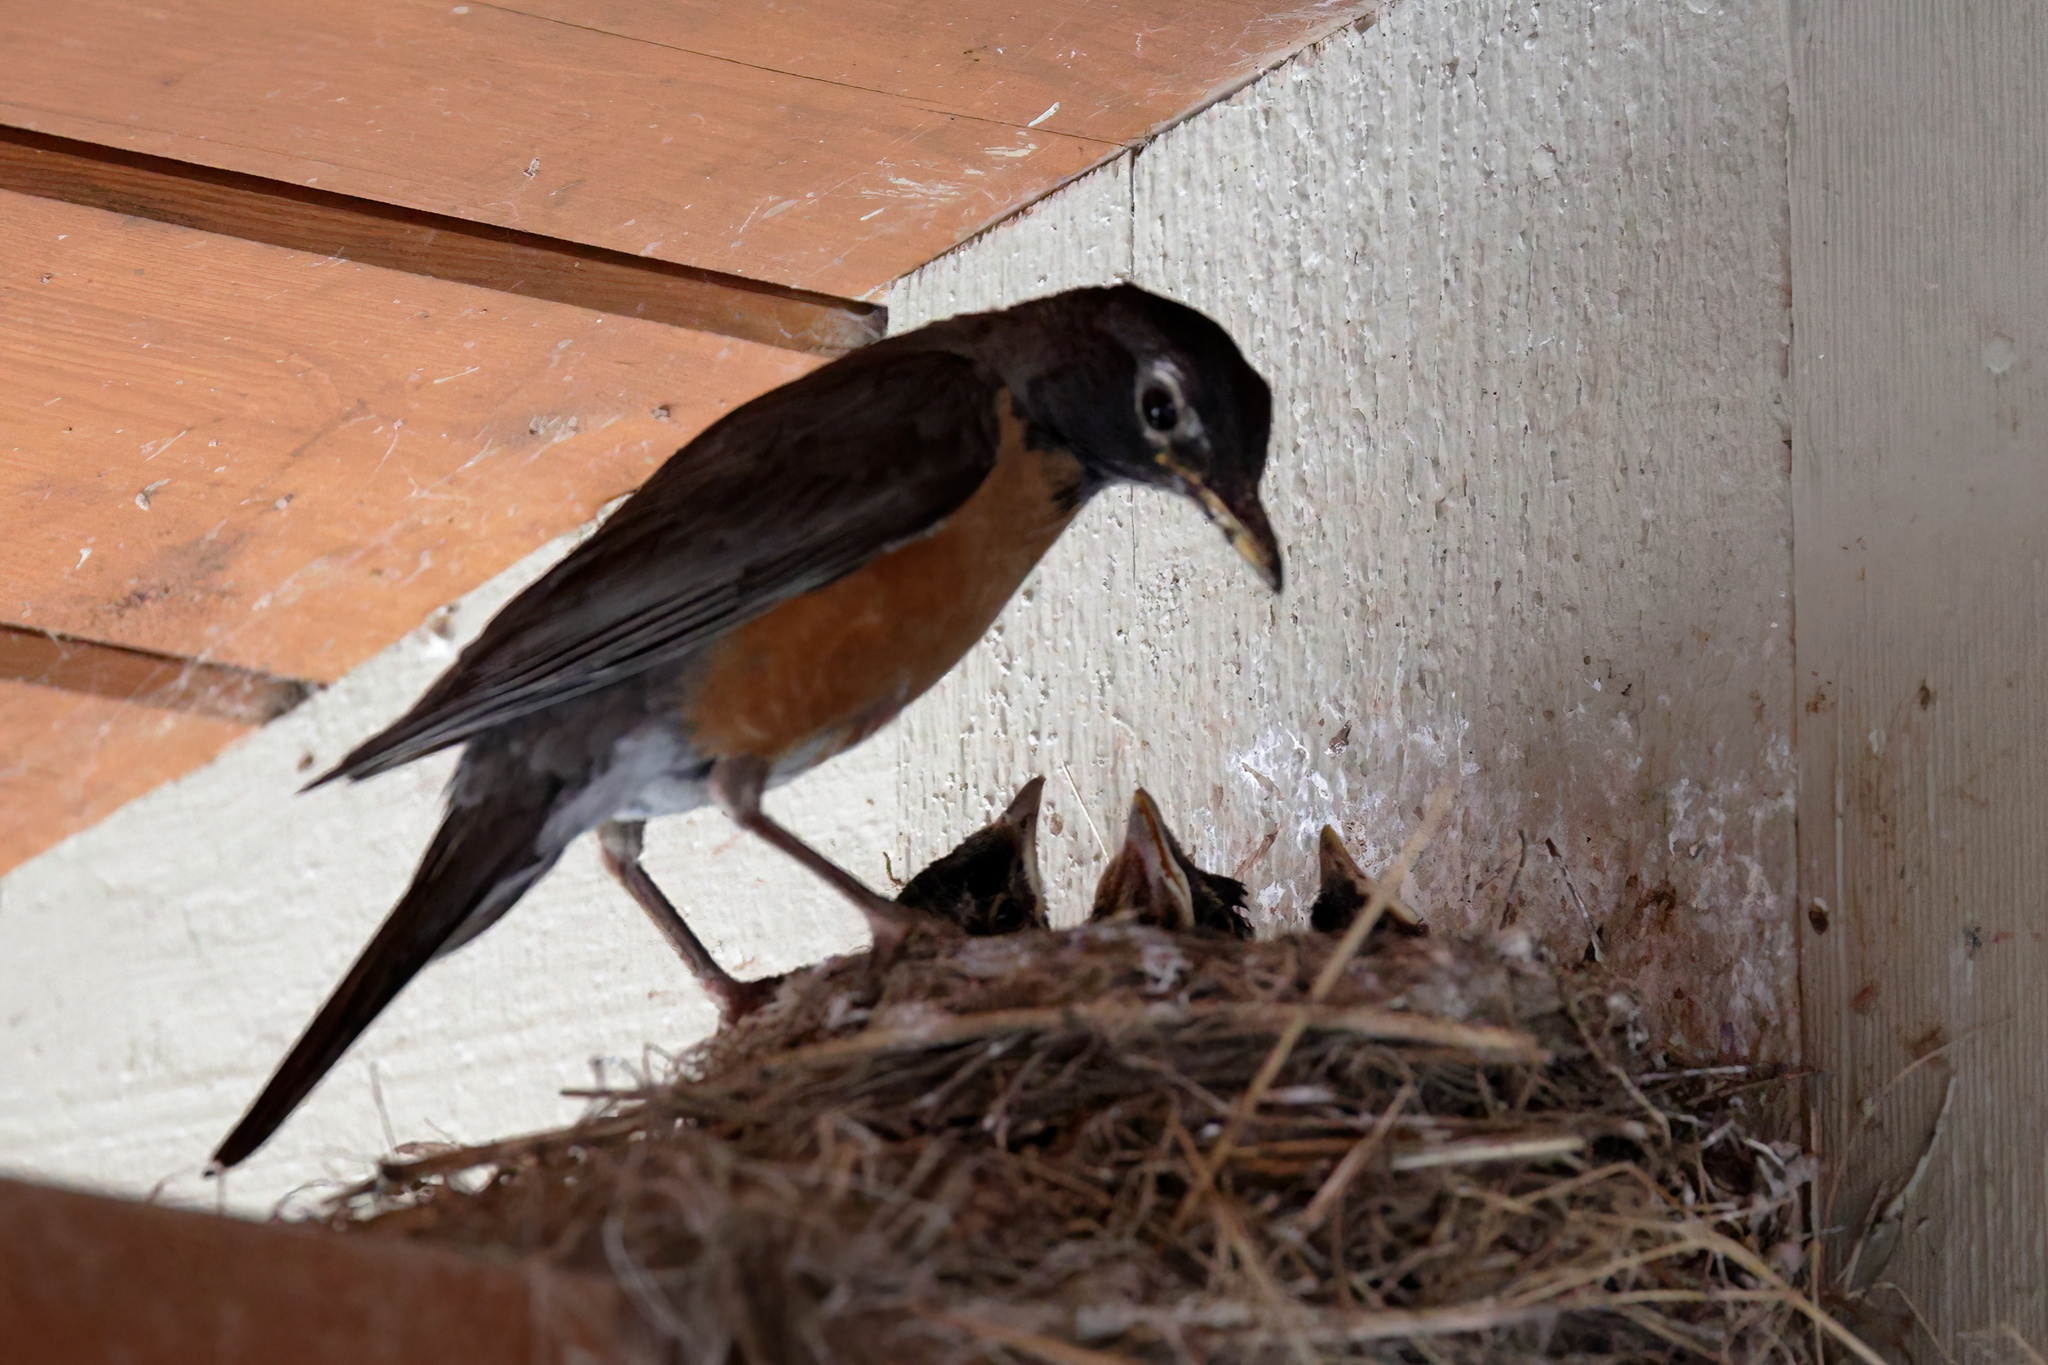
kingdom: Animalia
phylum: Chordata
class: Aves
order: Passeriformes
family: Turdidae
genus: Turdus
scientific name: Turdus migratorius
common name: American robin
